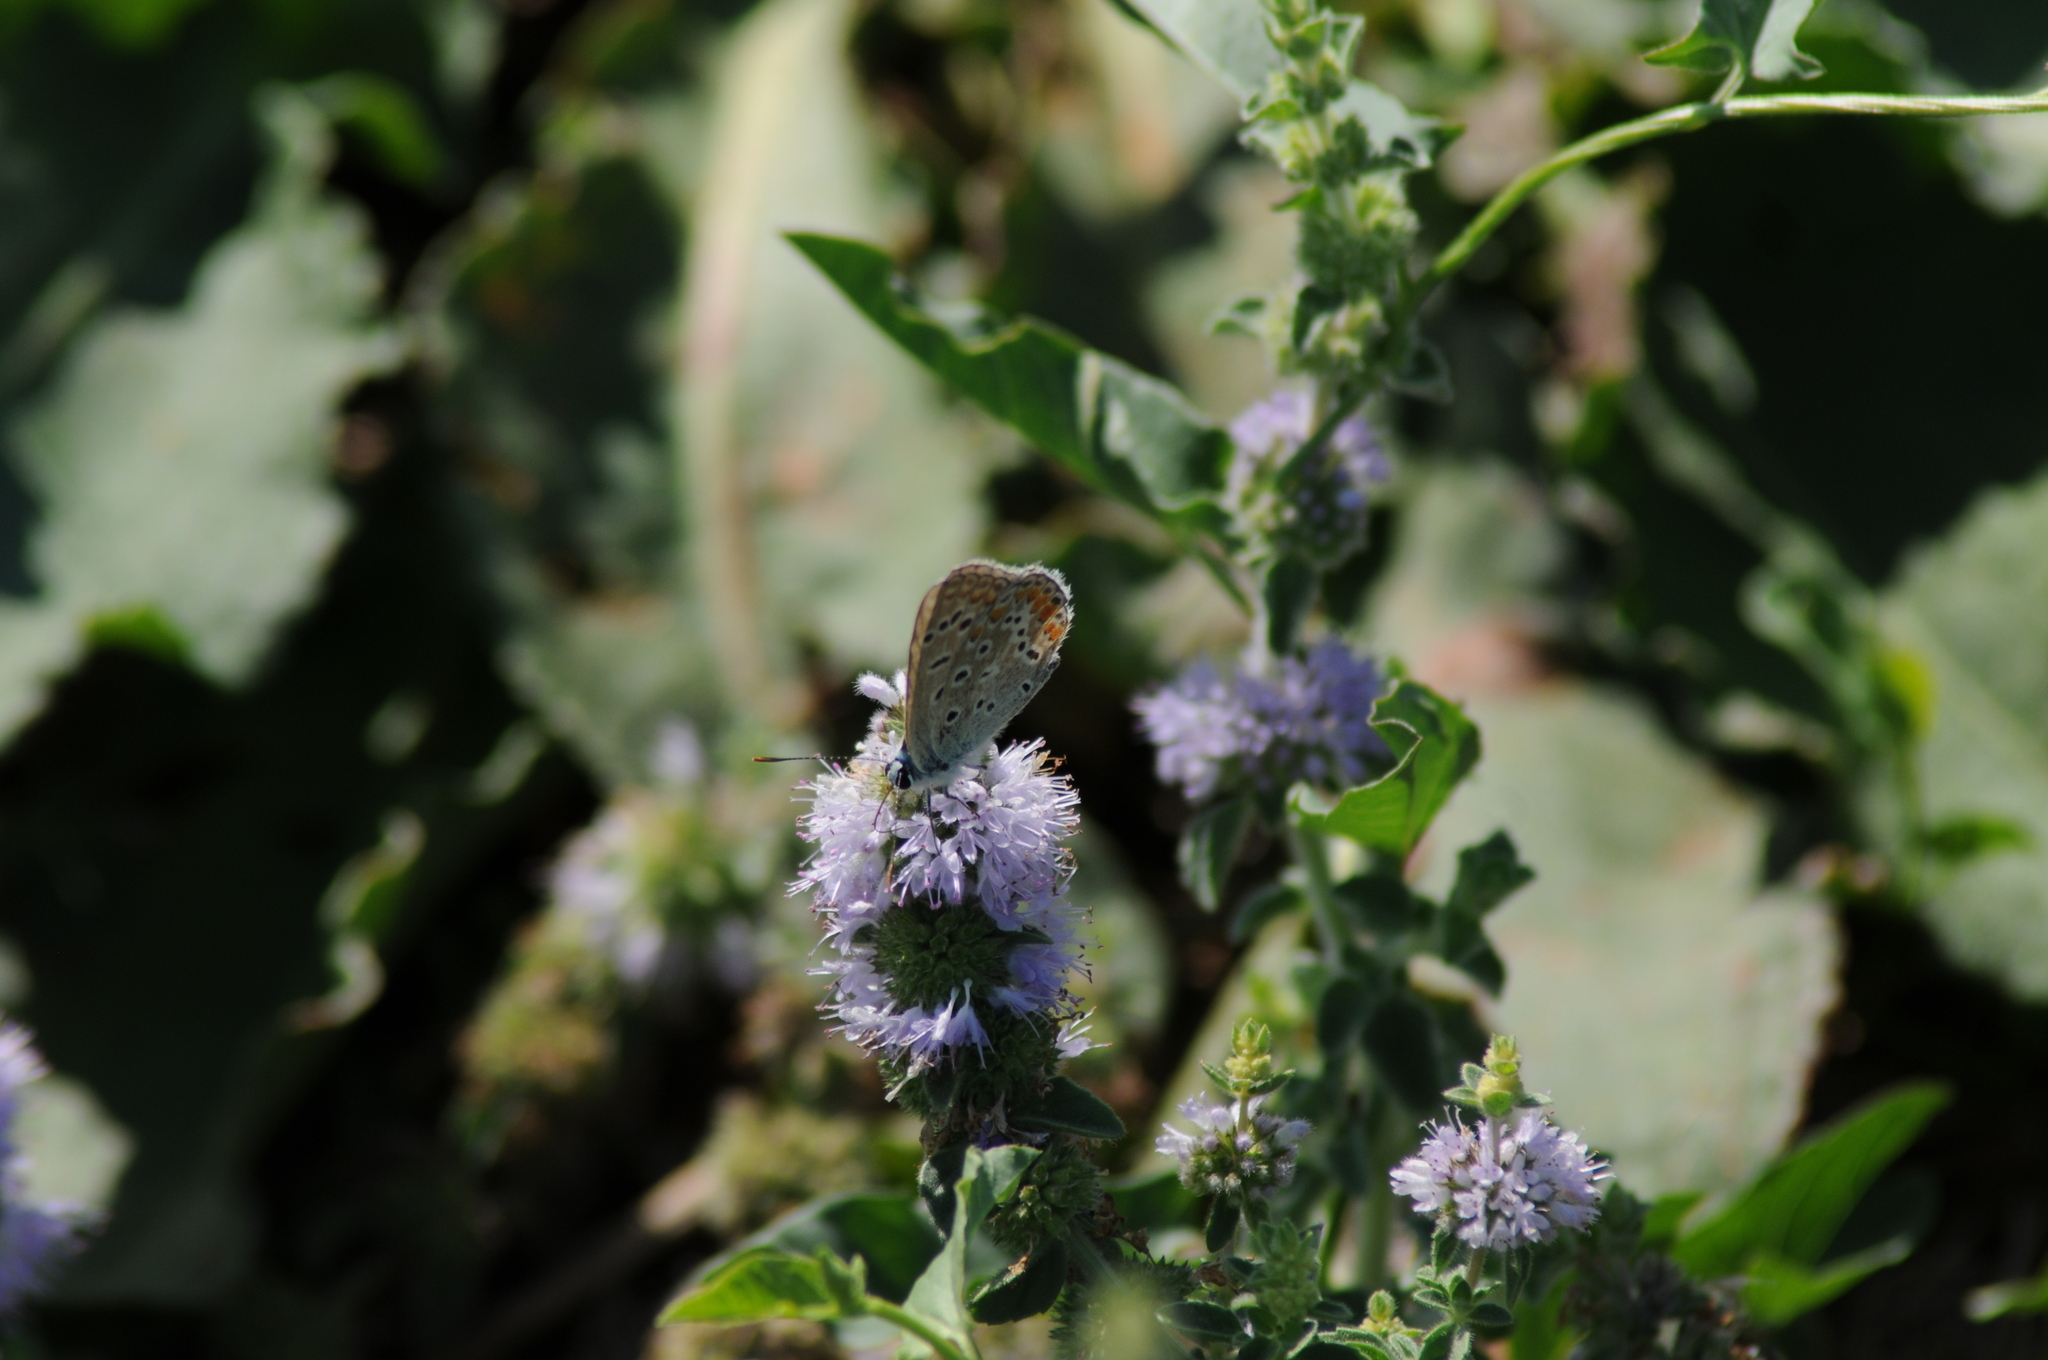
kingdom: Animalia
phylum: Arthropoda
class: Insecta
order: Lepidoptera
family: Lycaenidae
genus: Polyommatus
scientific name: Polyommatus icarus
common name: Common blue
